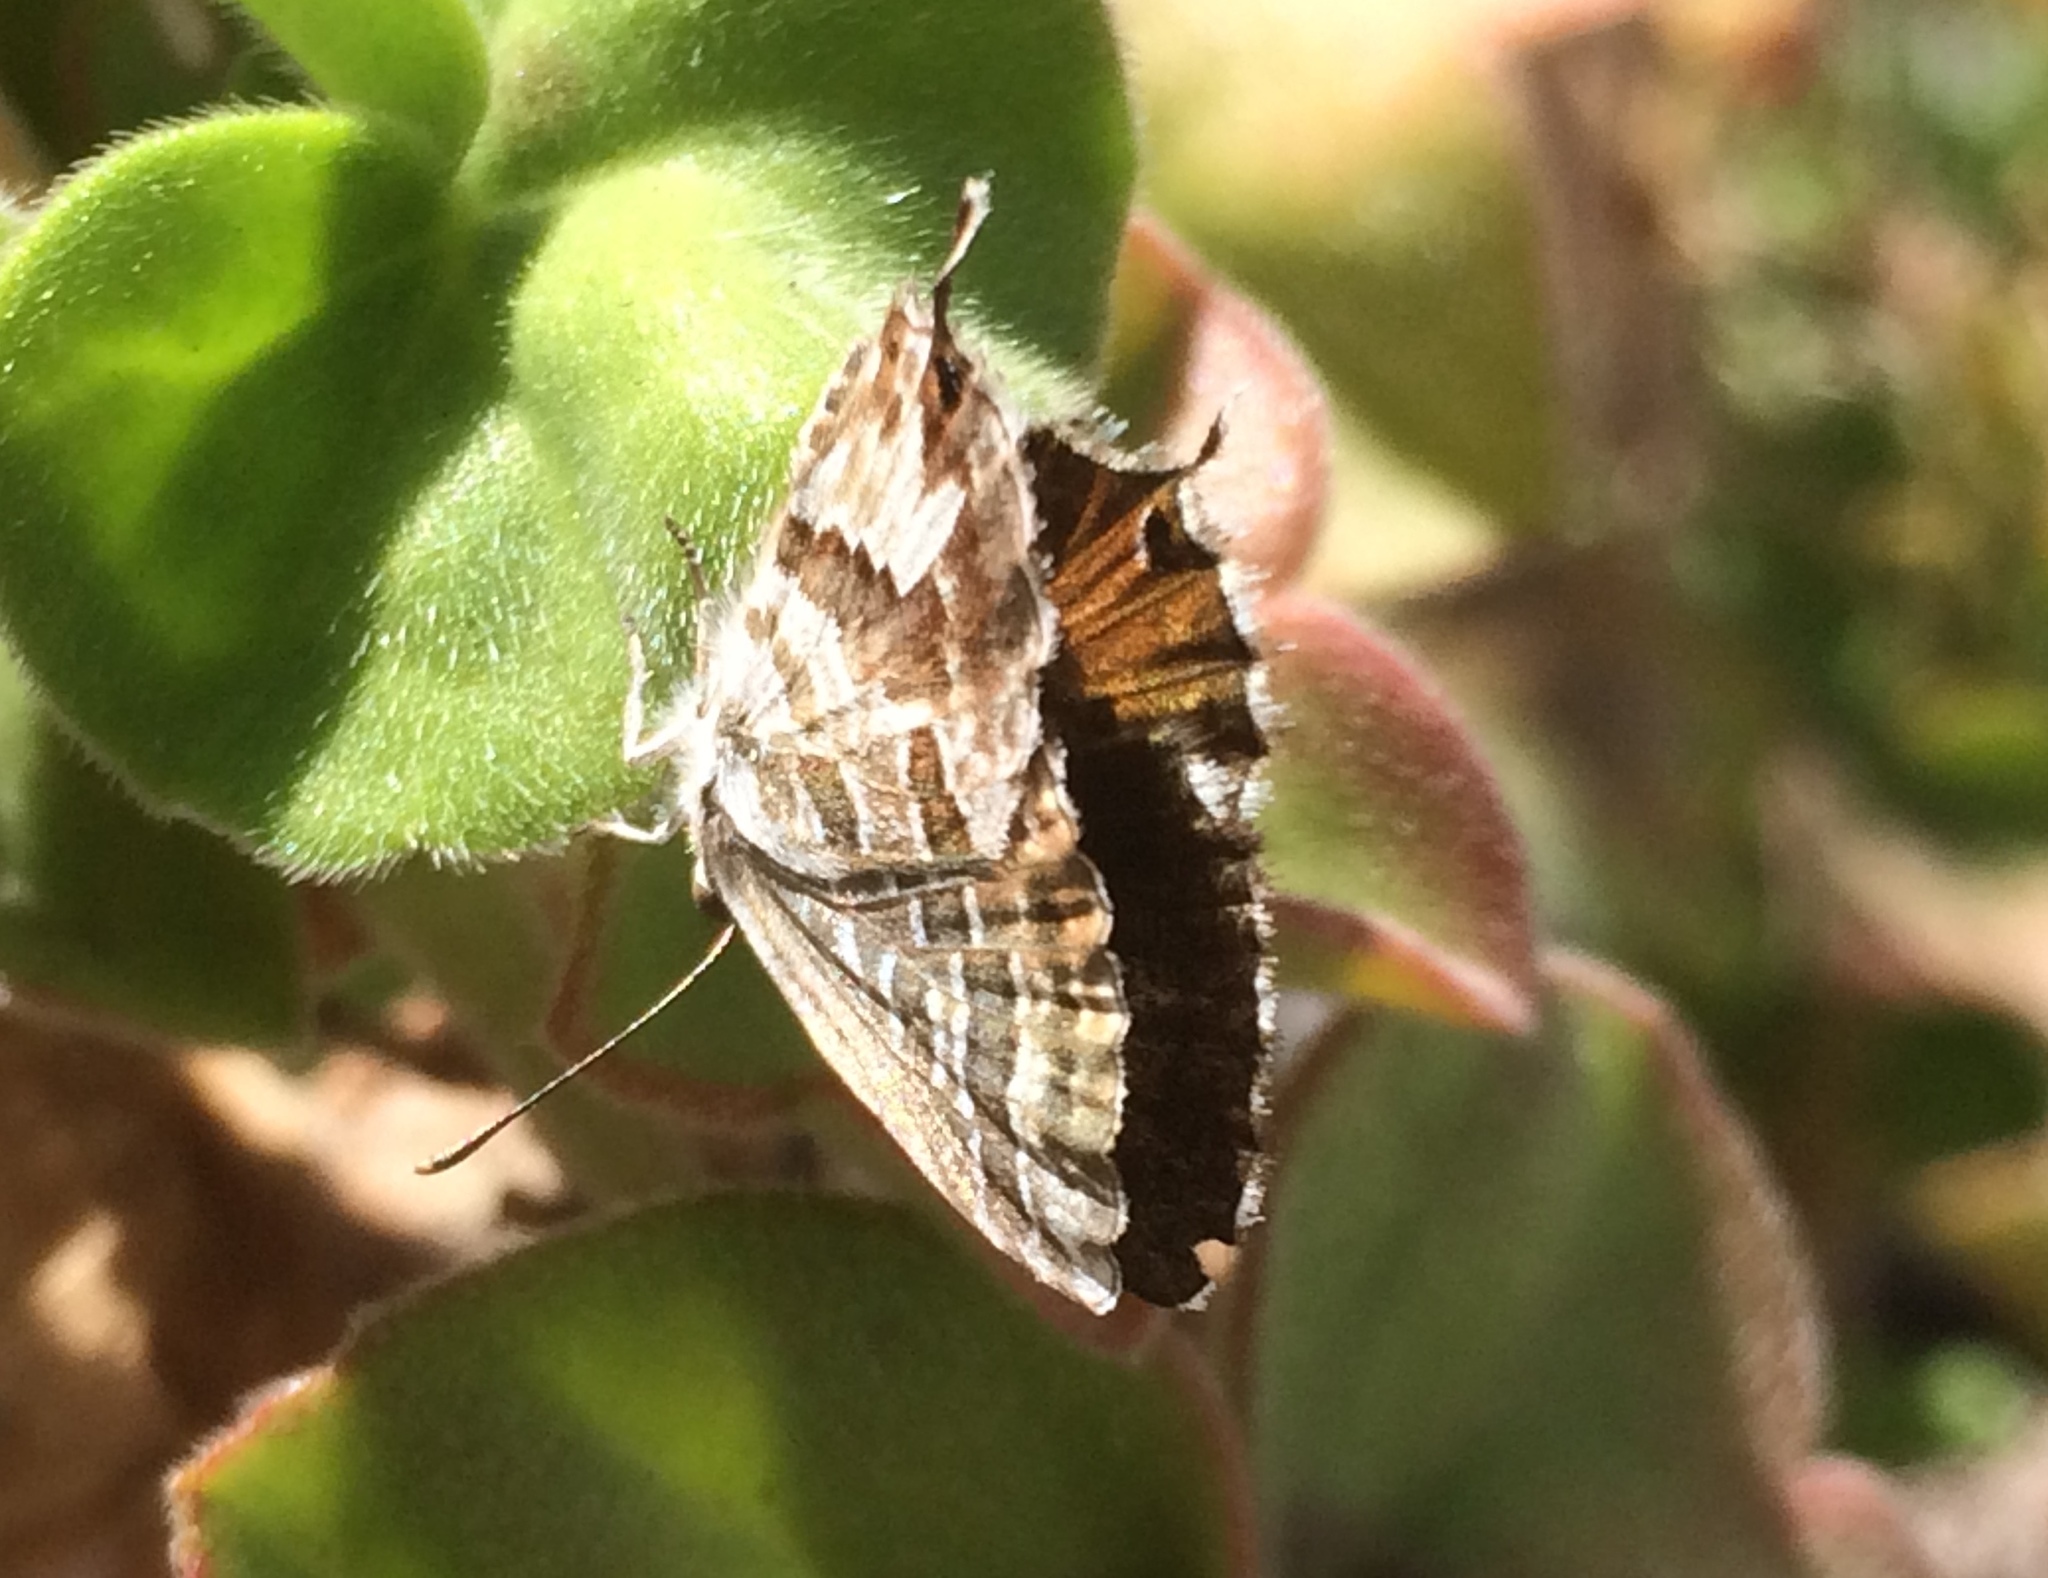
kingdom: Animalia
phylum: Arthropoda
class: Insecta
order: Lepidoptera
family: Lycaenidae
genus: Cacyreus
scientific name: Cacyreus marshalli
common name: Geranium bronze
